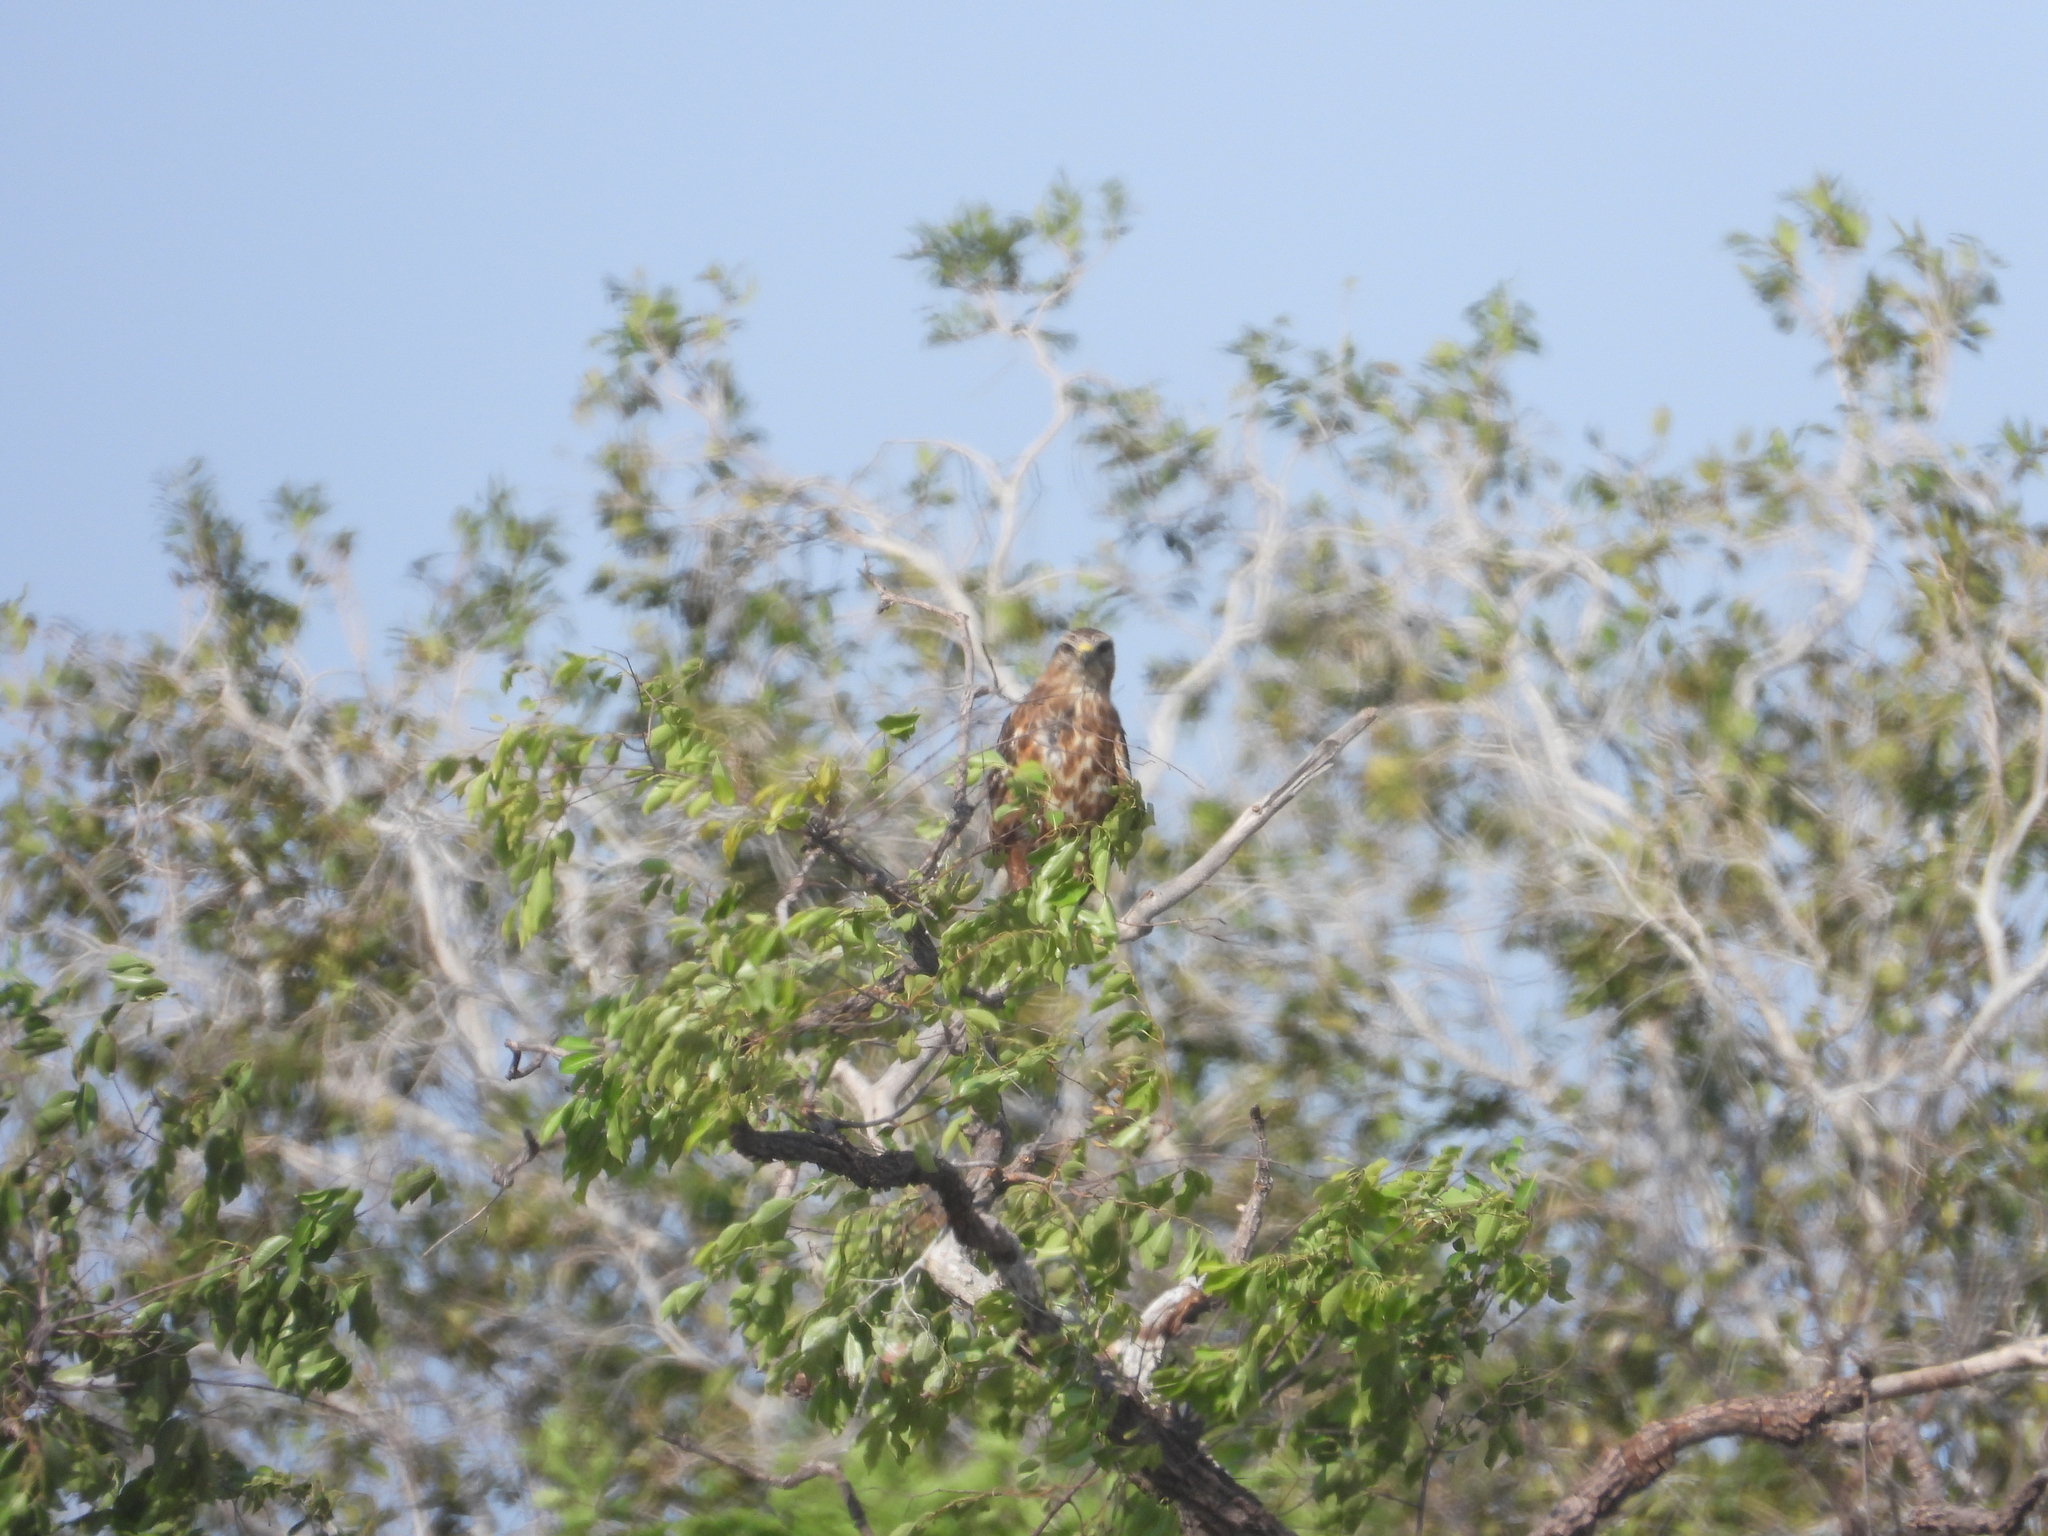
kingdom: Animalia
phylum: Chordata
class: Aves
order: Accipitriformes
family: Accipitridae
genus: Buteo
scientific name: Buteo buteo
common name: Common buzzard
